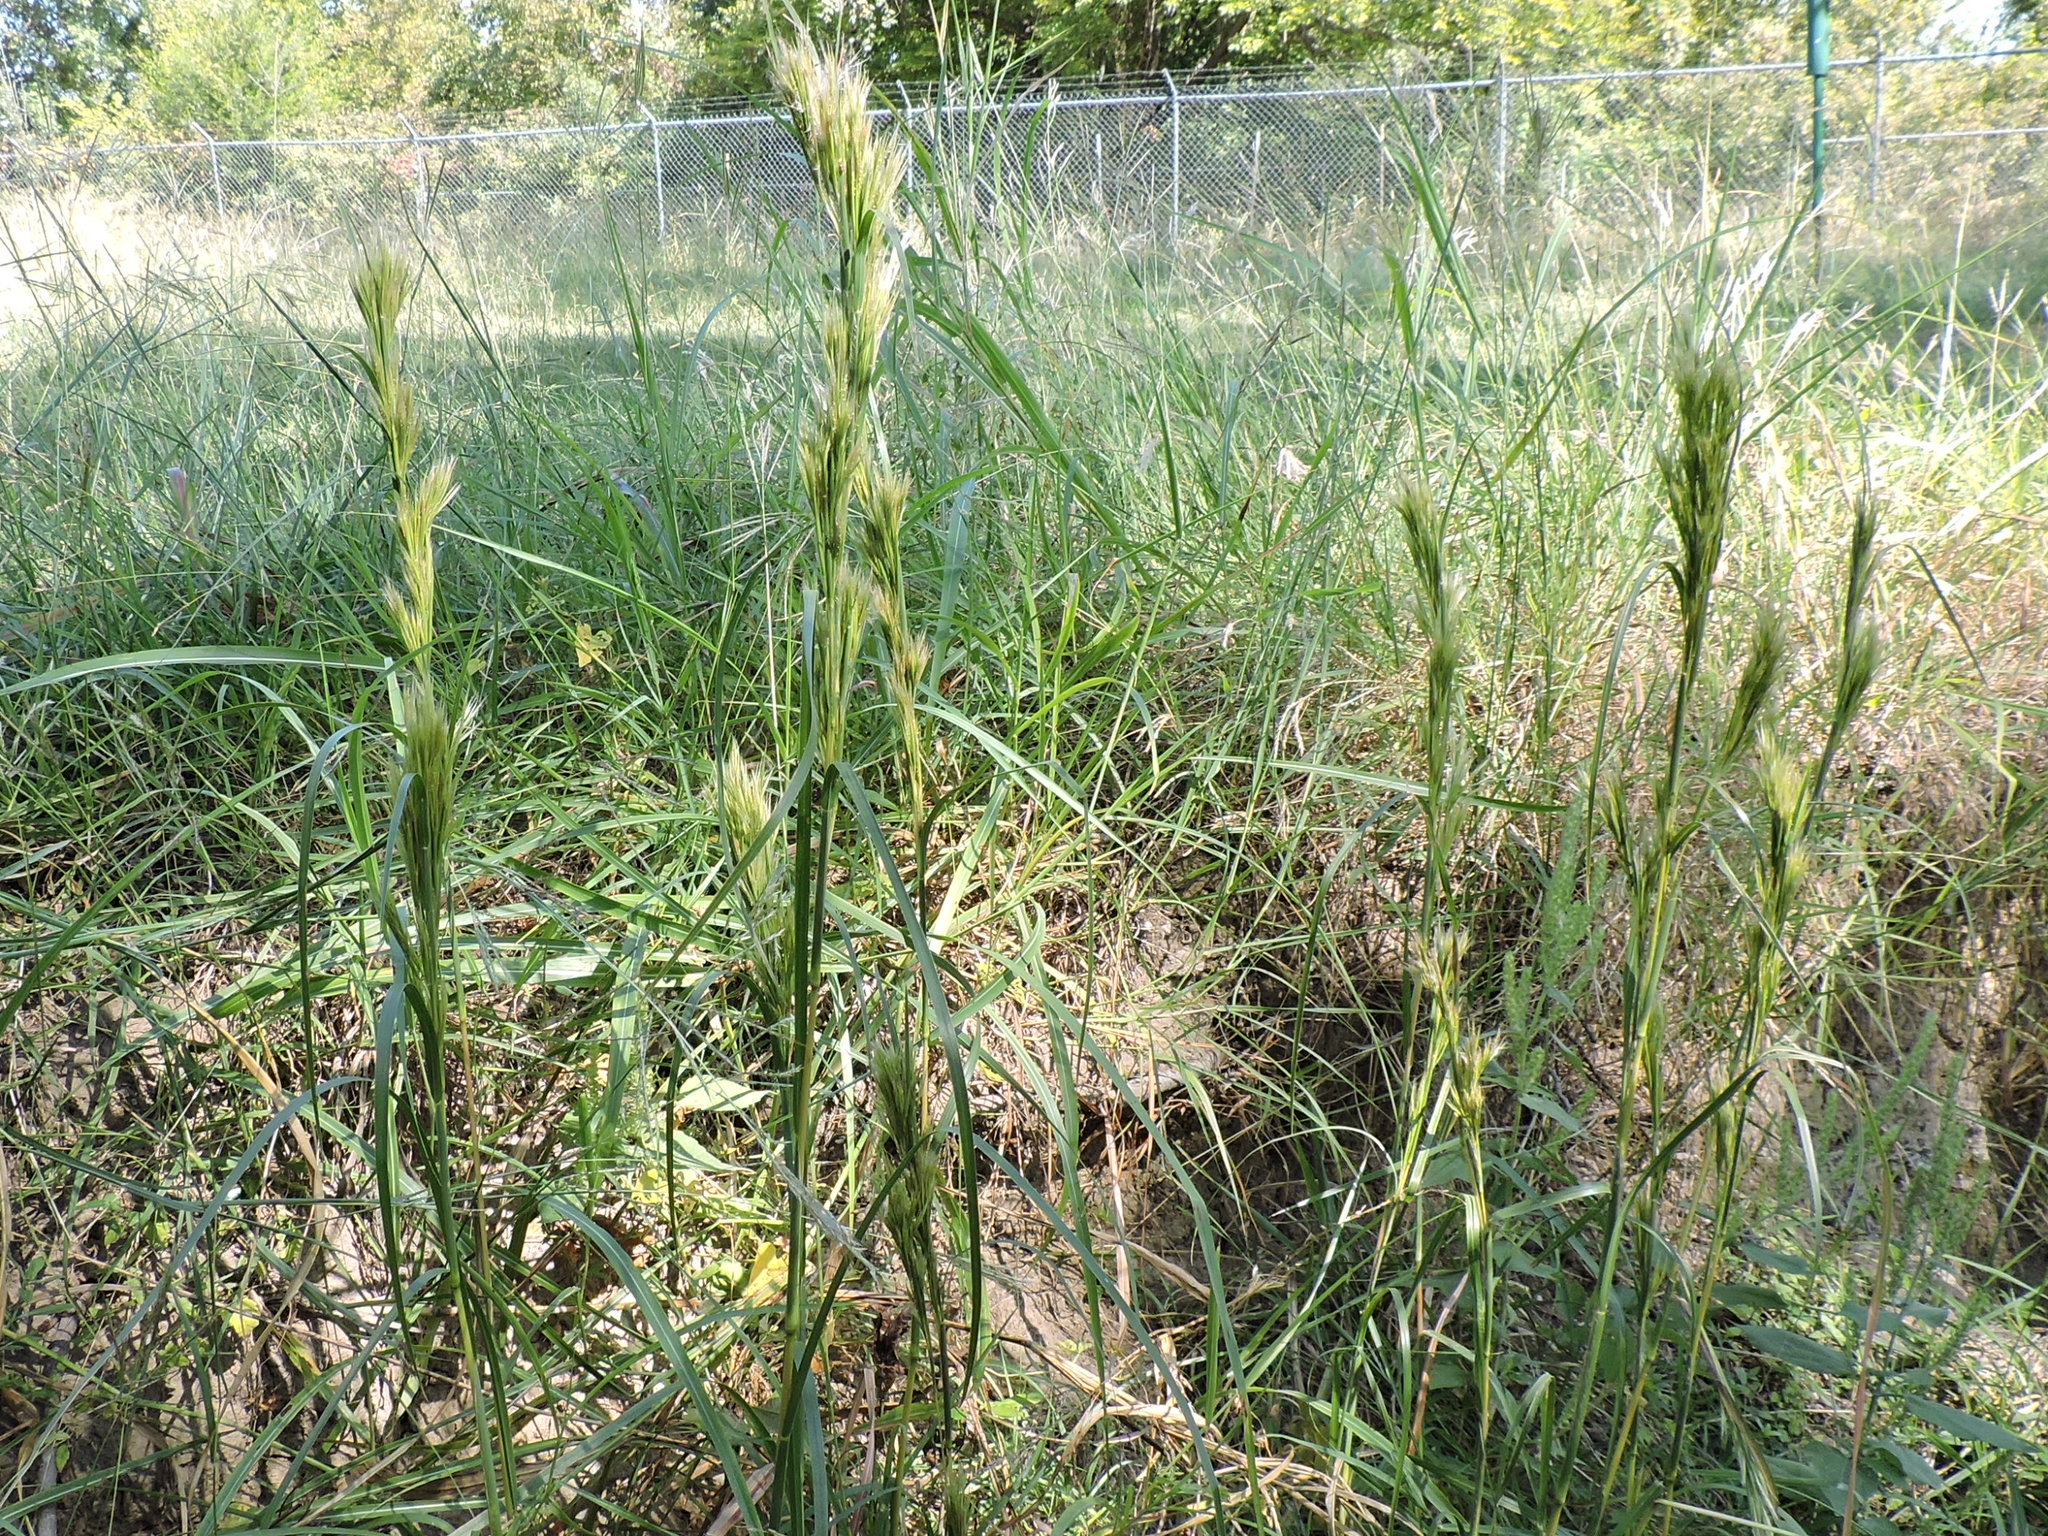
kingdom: Plantae
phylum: Tracheophyta
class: Liliopsida
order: Poales
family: Poaceae
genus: Andropogon
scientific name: Andropogon tenuispatheus
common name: Bushy bluestem
